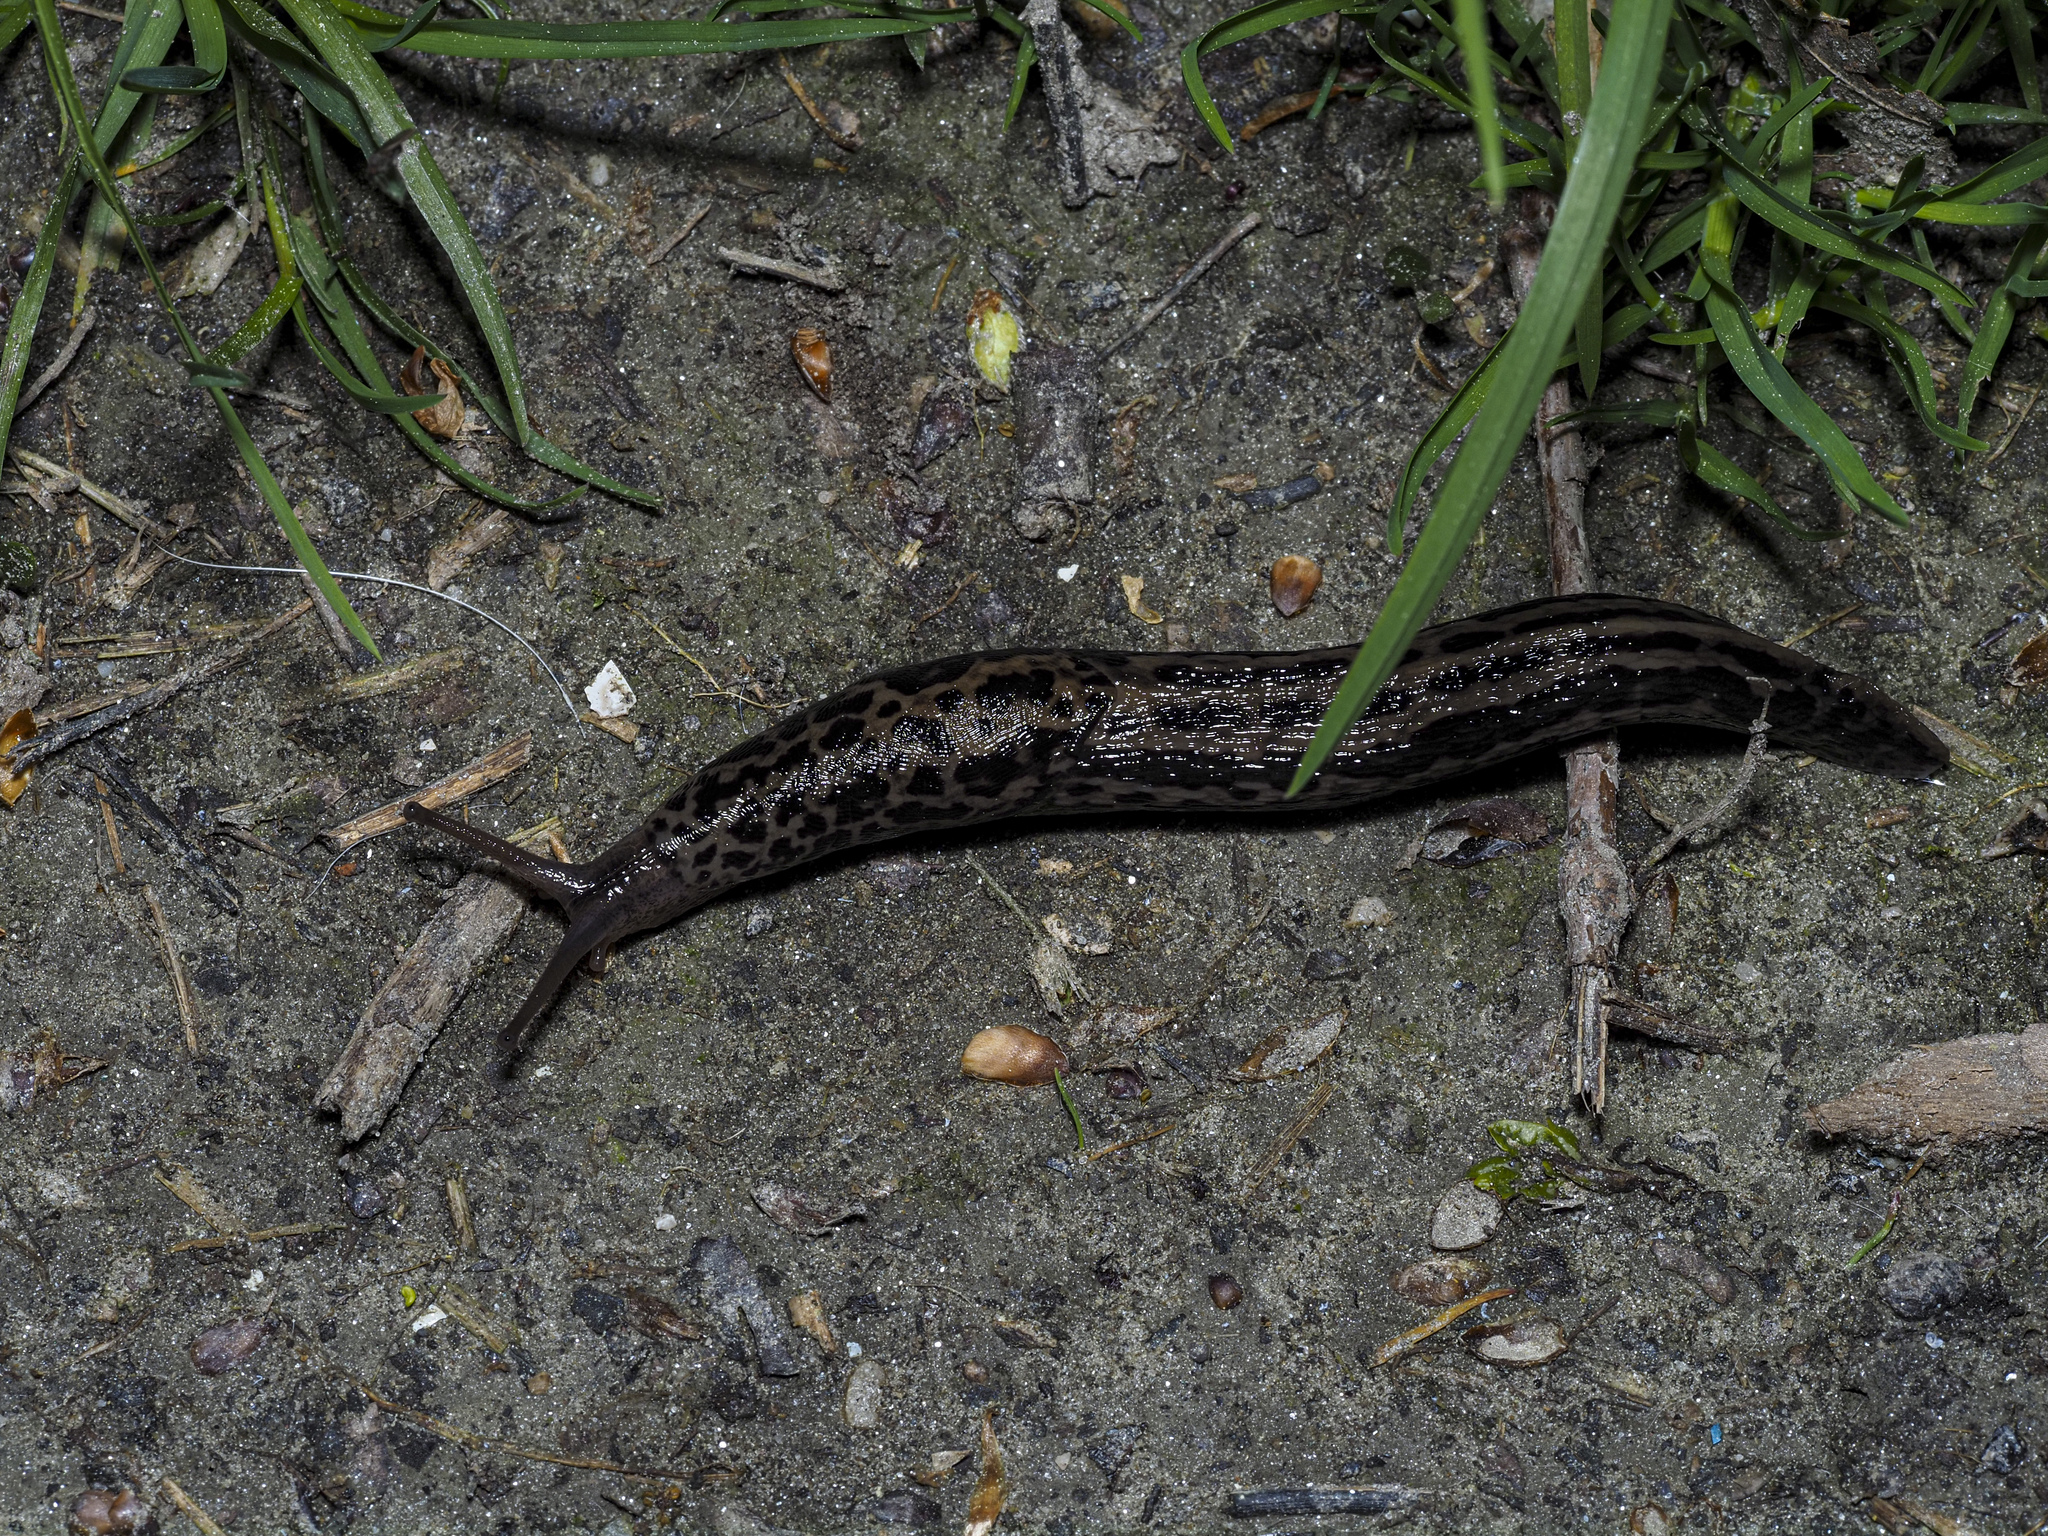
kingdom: Animalia
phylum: Mollusca
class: Gastropoda
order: Stylommatophora
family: Limacidae
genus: Limax
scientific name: Limax maximus
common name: Great grey slug
